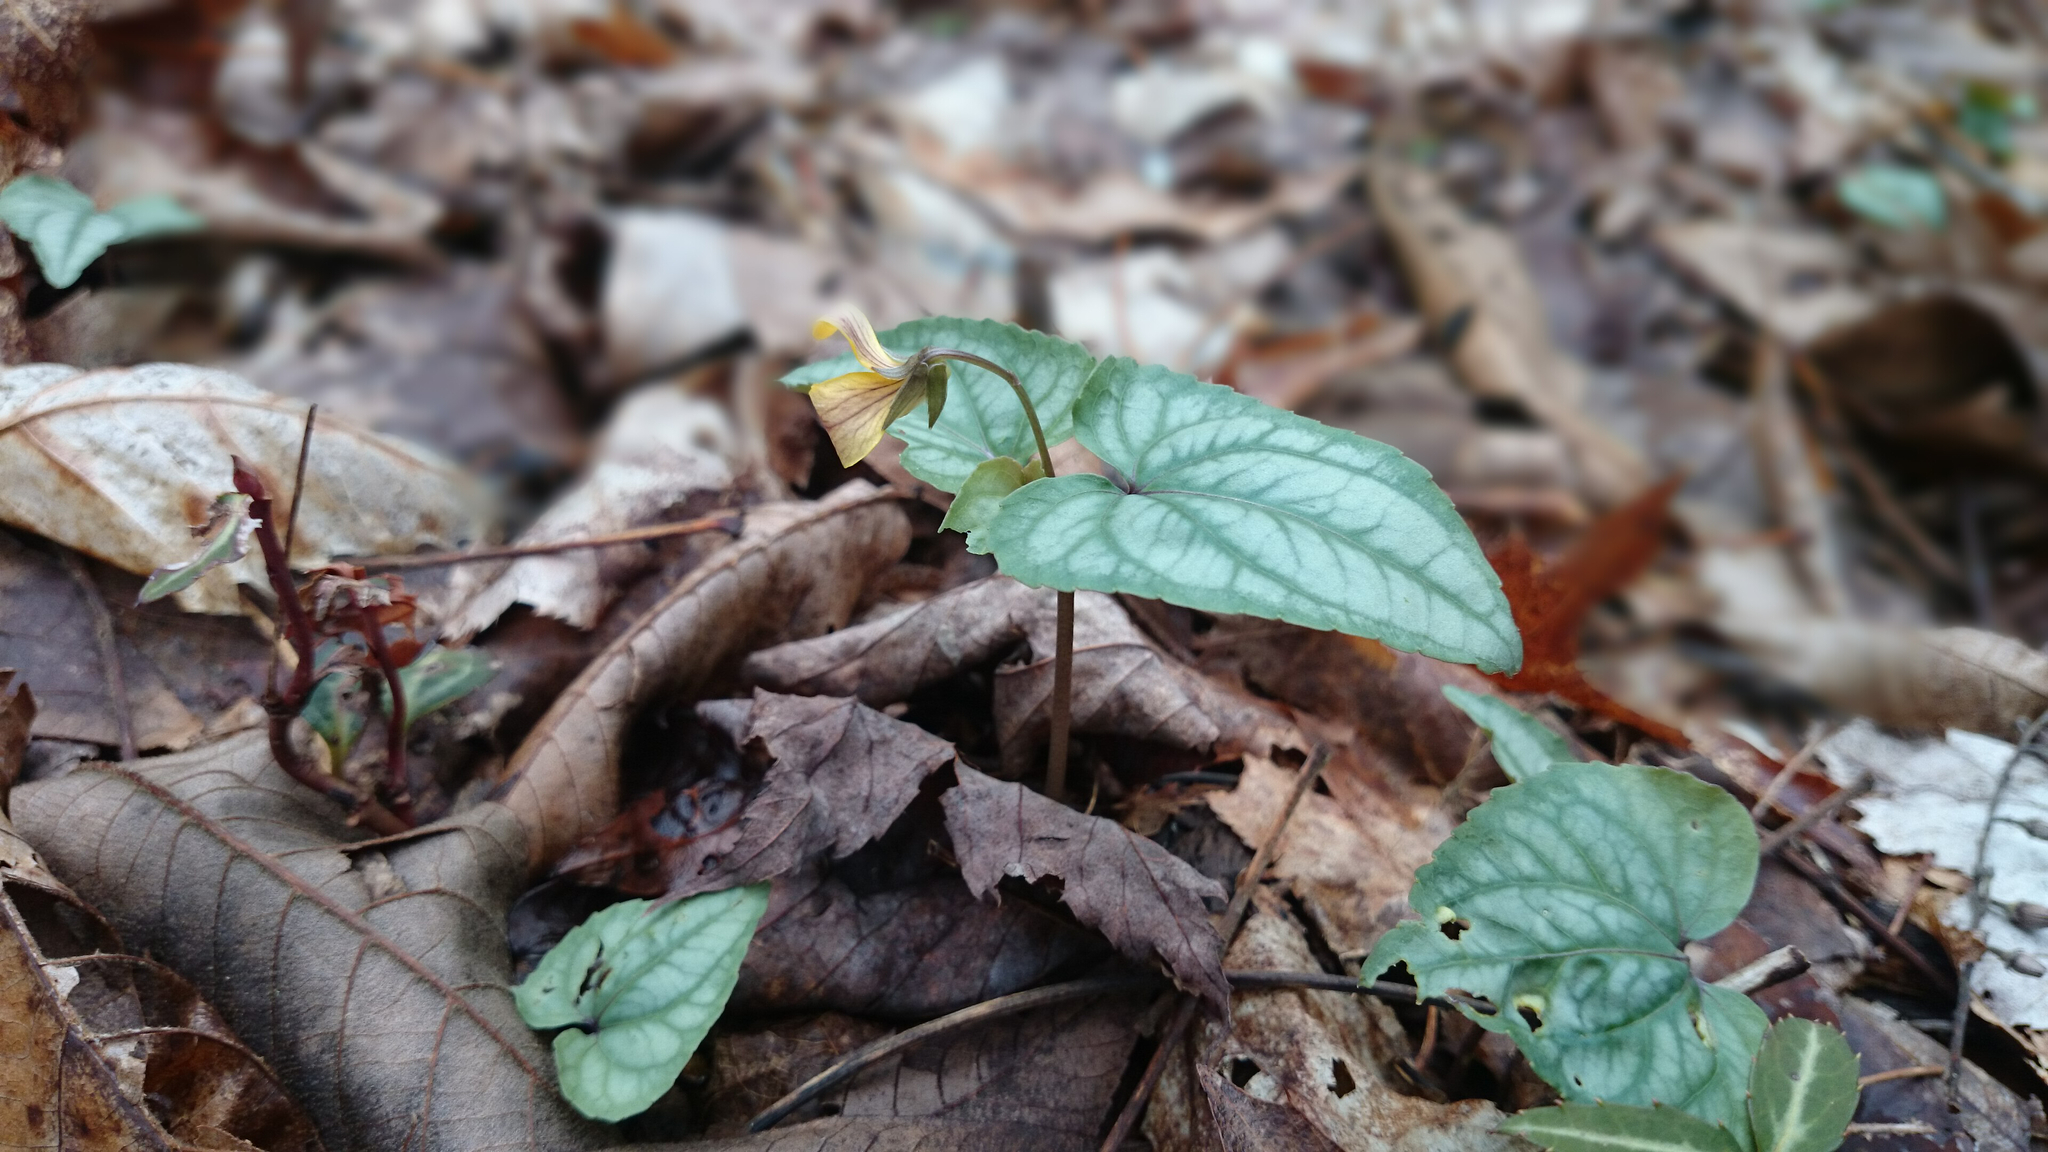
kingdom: Plantae
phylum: Tracheophyta
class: Magnoliopsida
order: Malpighiales
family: Violaceae
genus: Viola
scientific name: Viola hastata
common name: Spear-leaf violet
